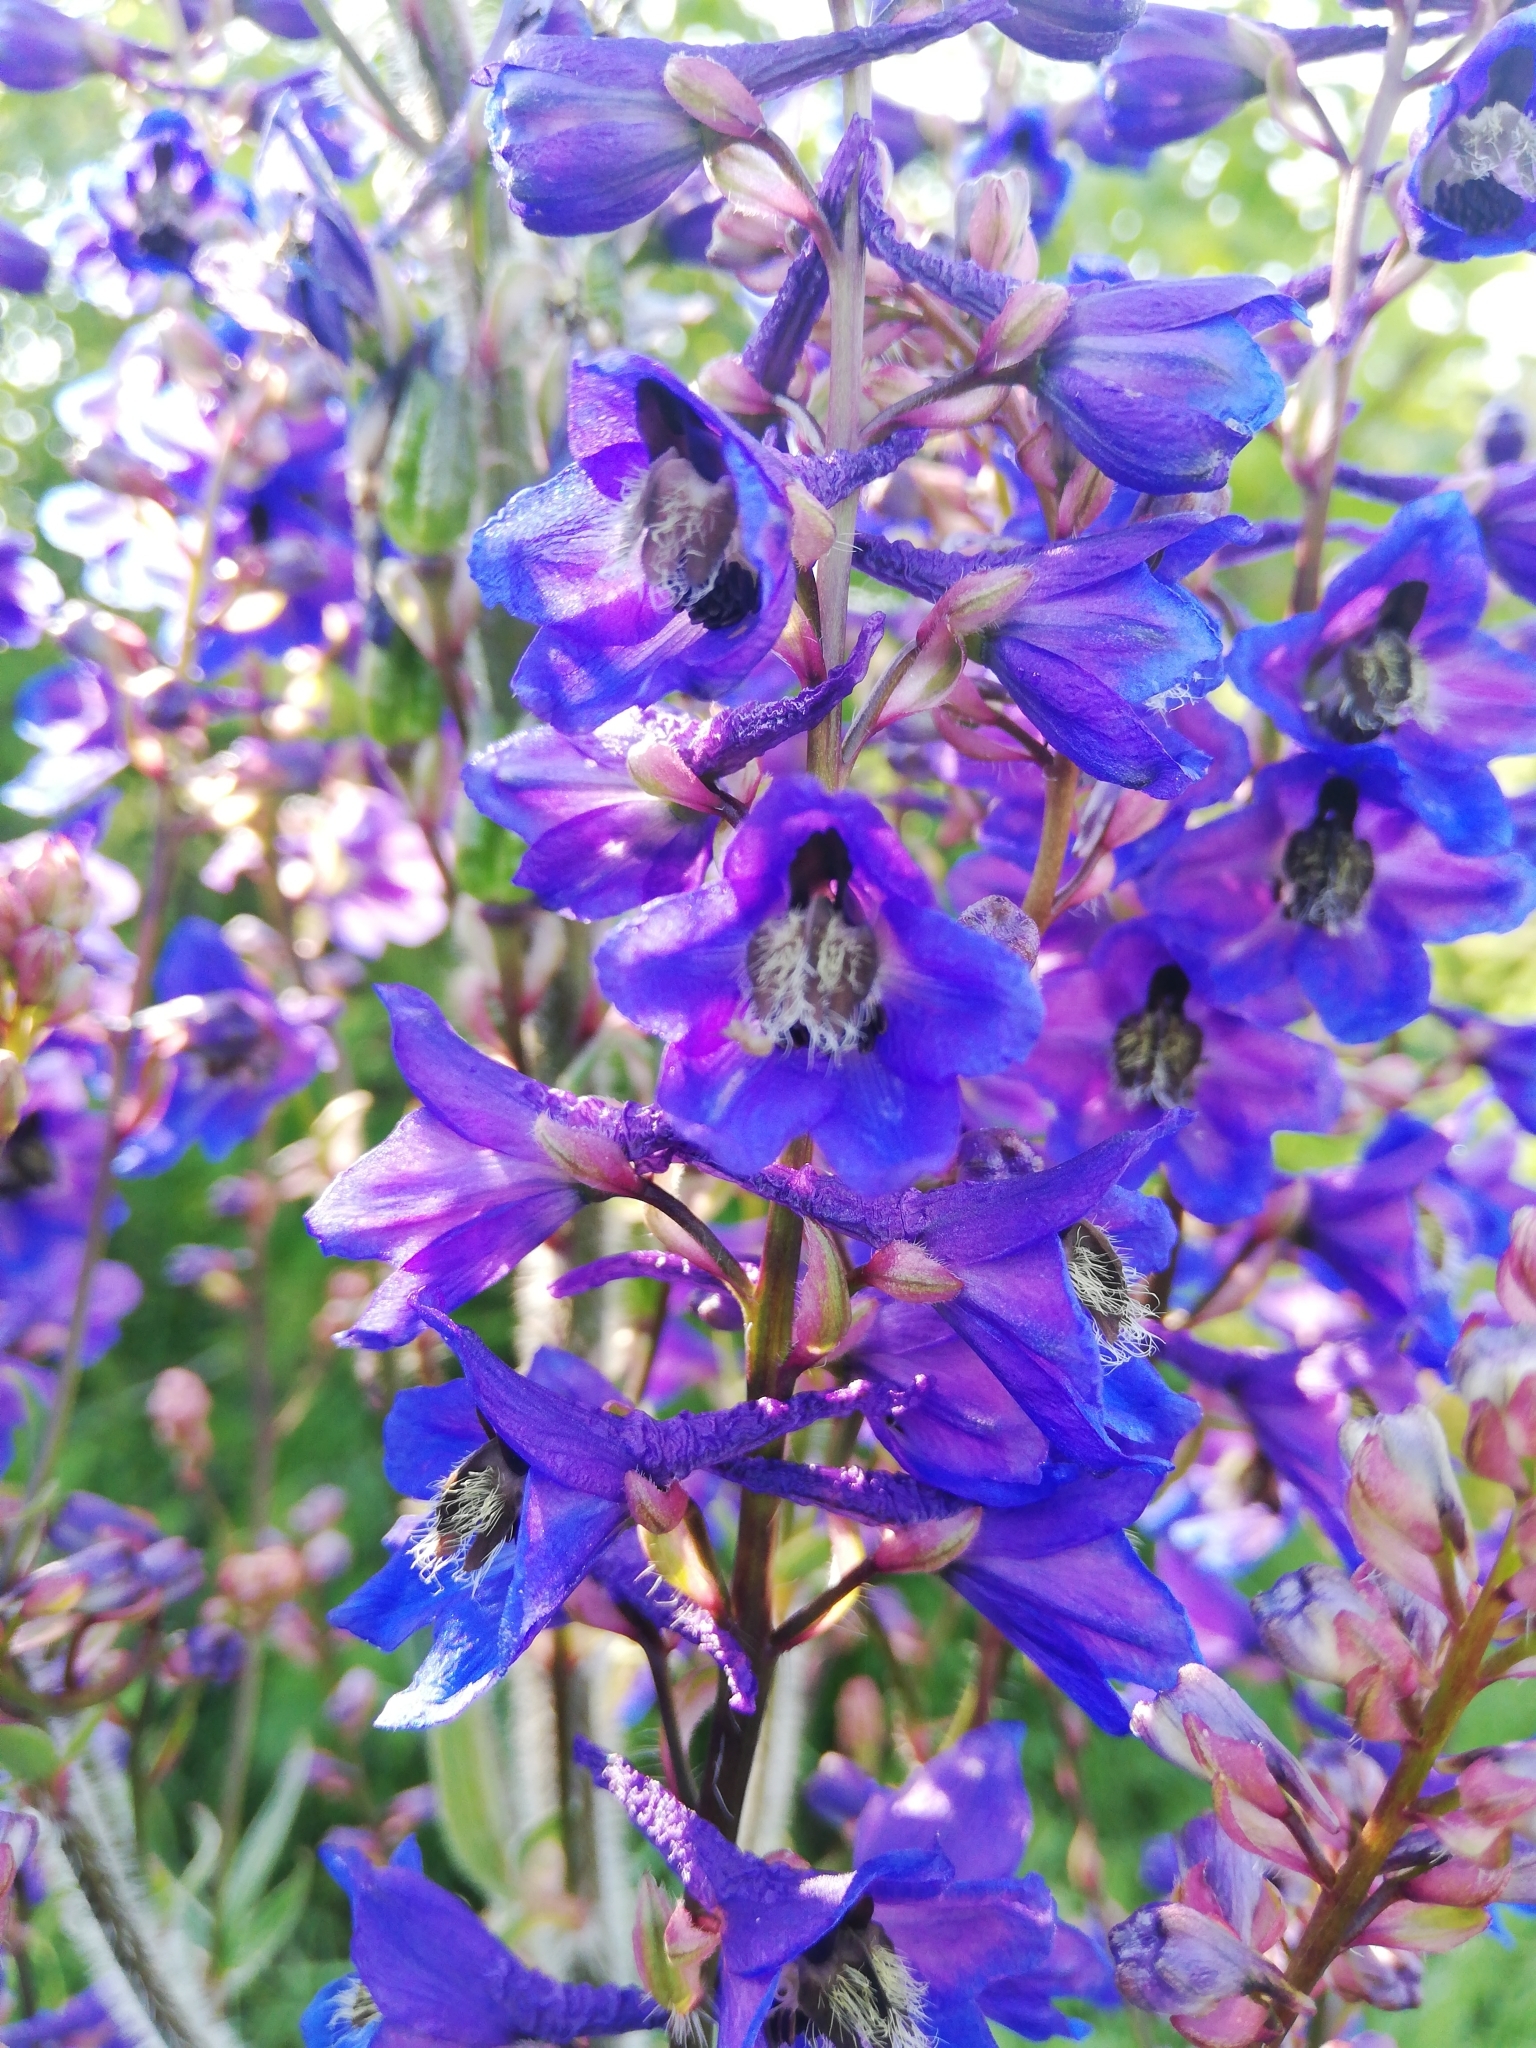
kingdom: Plantae
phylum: Tracheophyta
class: Magnoliopsida
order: Ranunculales
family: Ranunculaceae
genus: Delphinium
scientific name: Delphinium retropilosum
